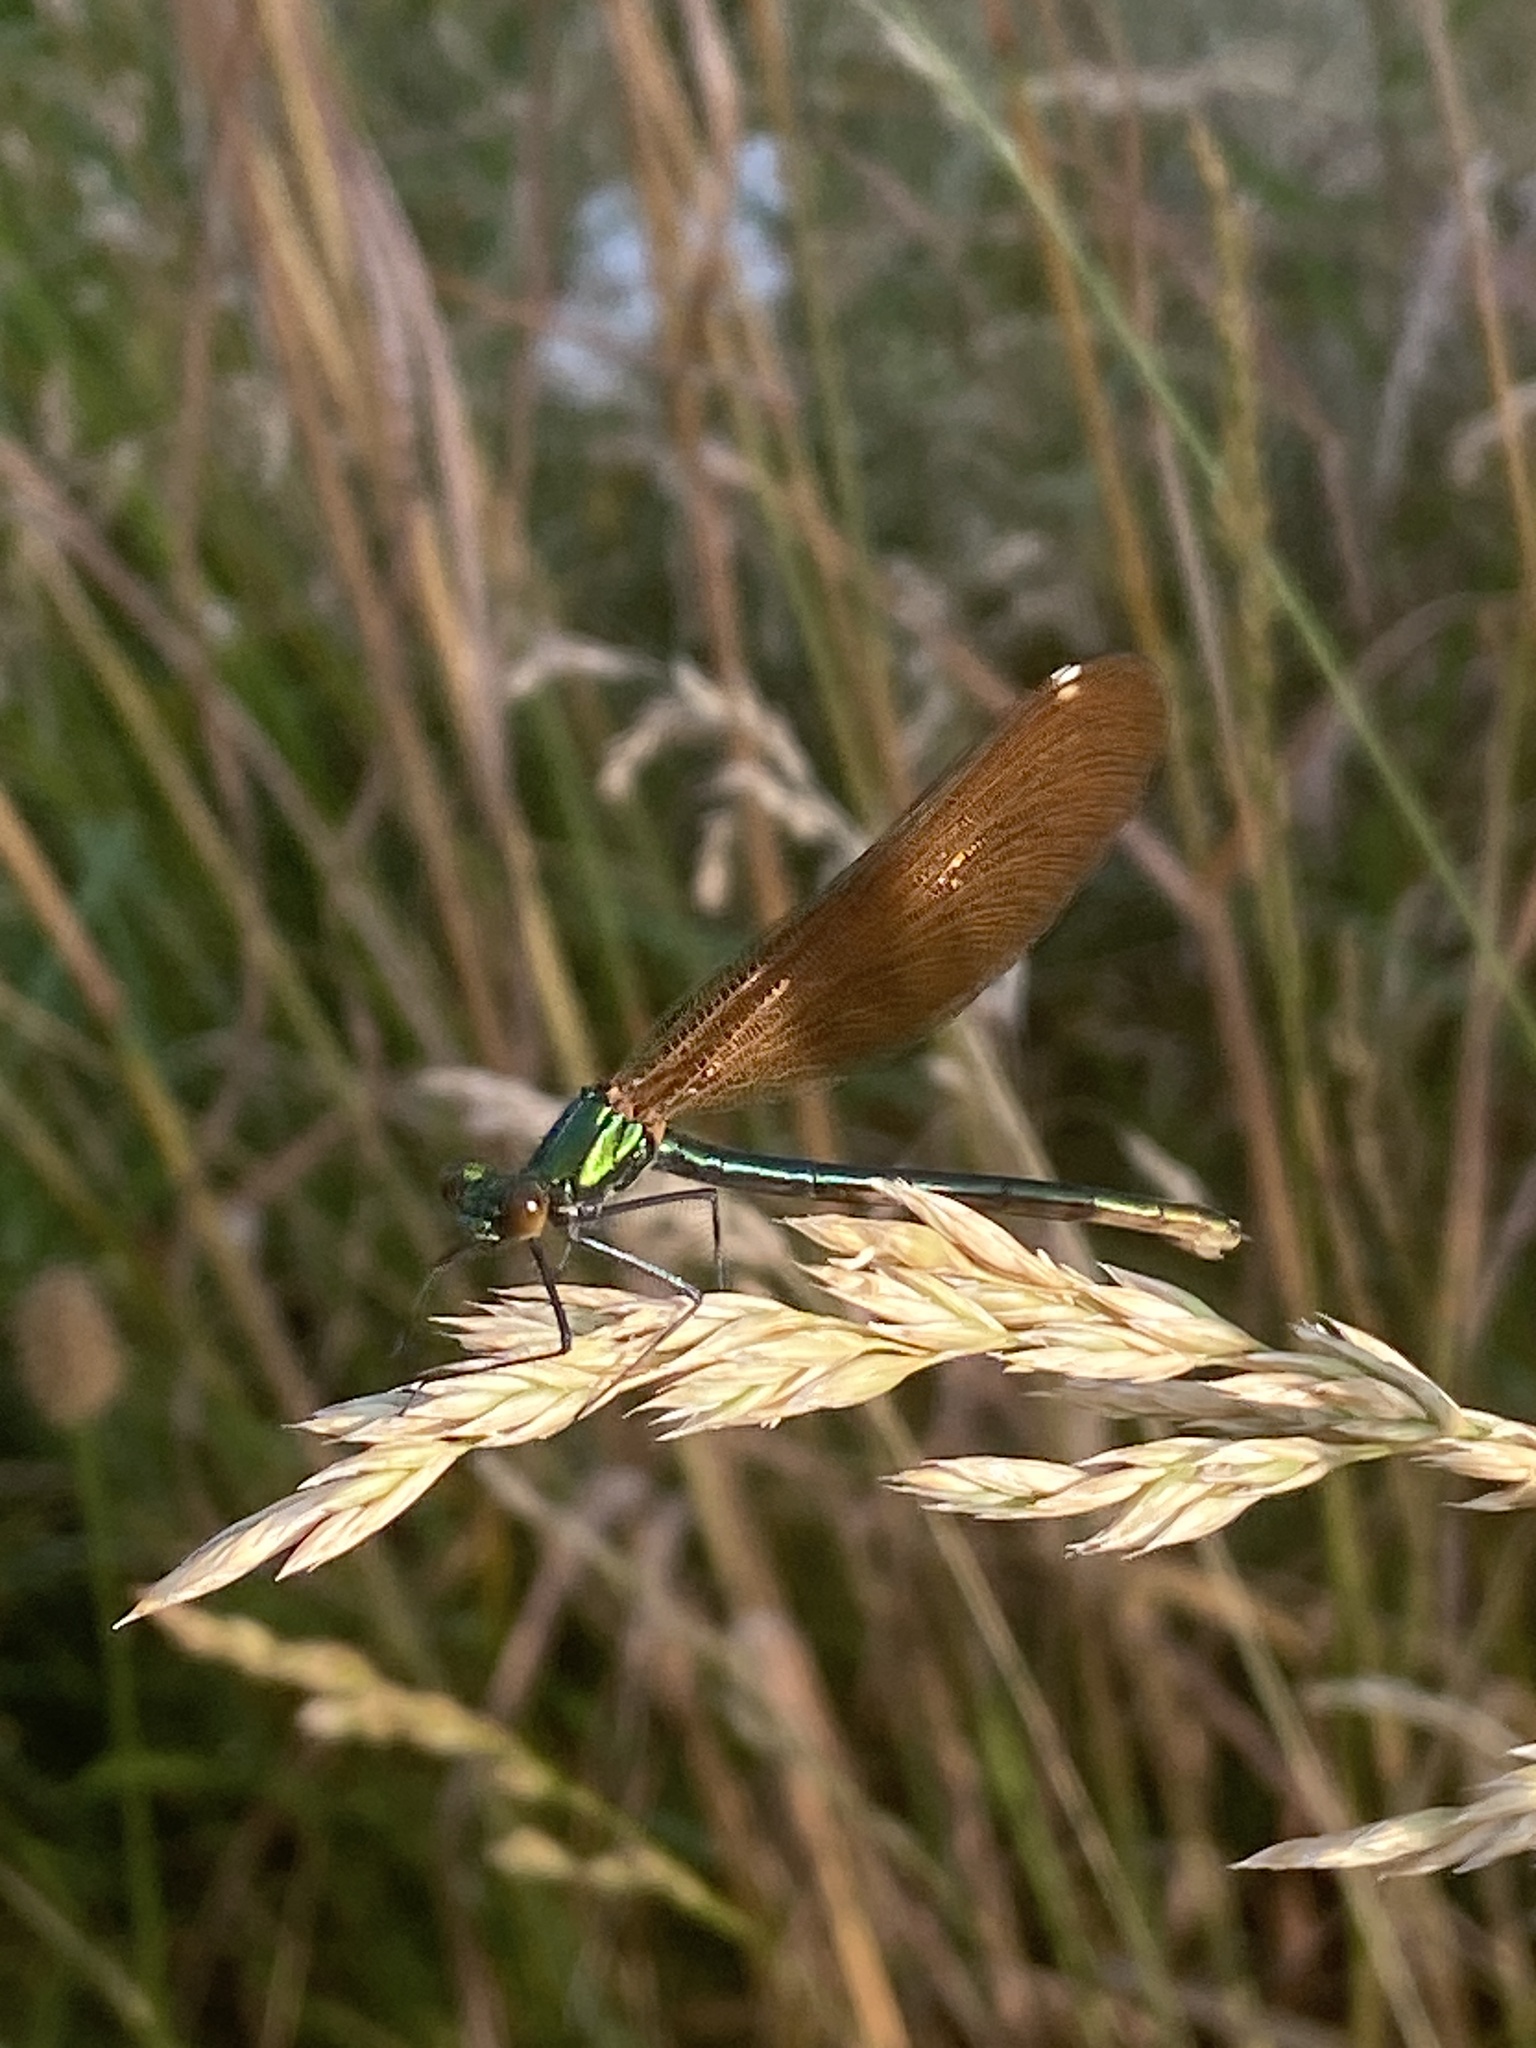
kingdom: Animalia
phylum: Arthropoda
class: Insecta
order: Odonata
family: Calopterygidae
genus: Calopteryx
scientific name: Calopteryx virgo
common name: Beautiful demoiselle
